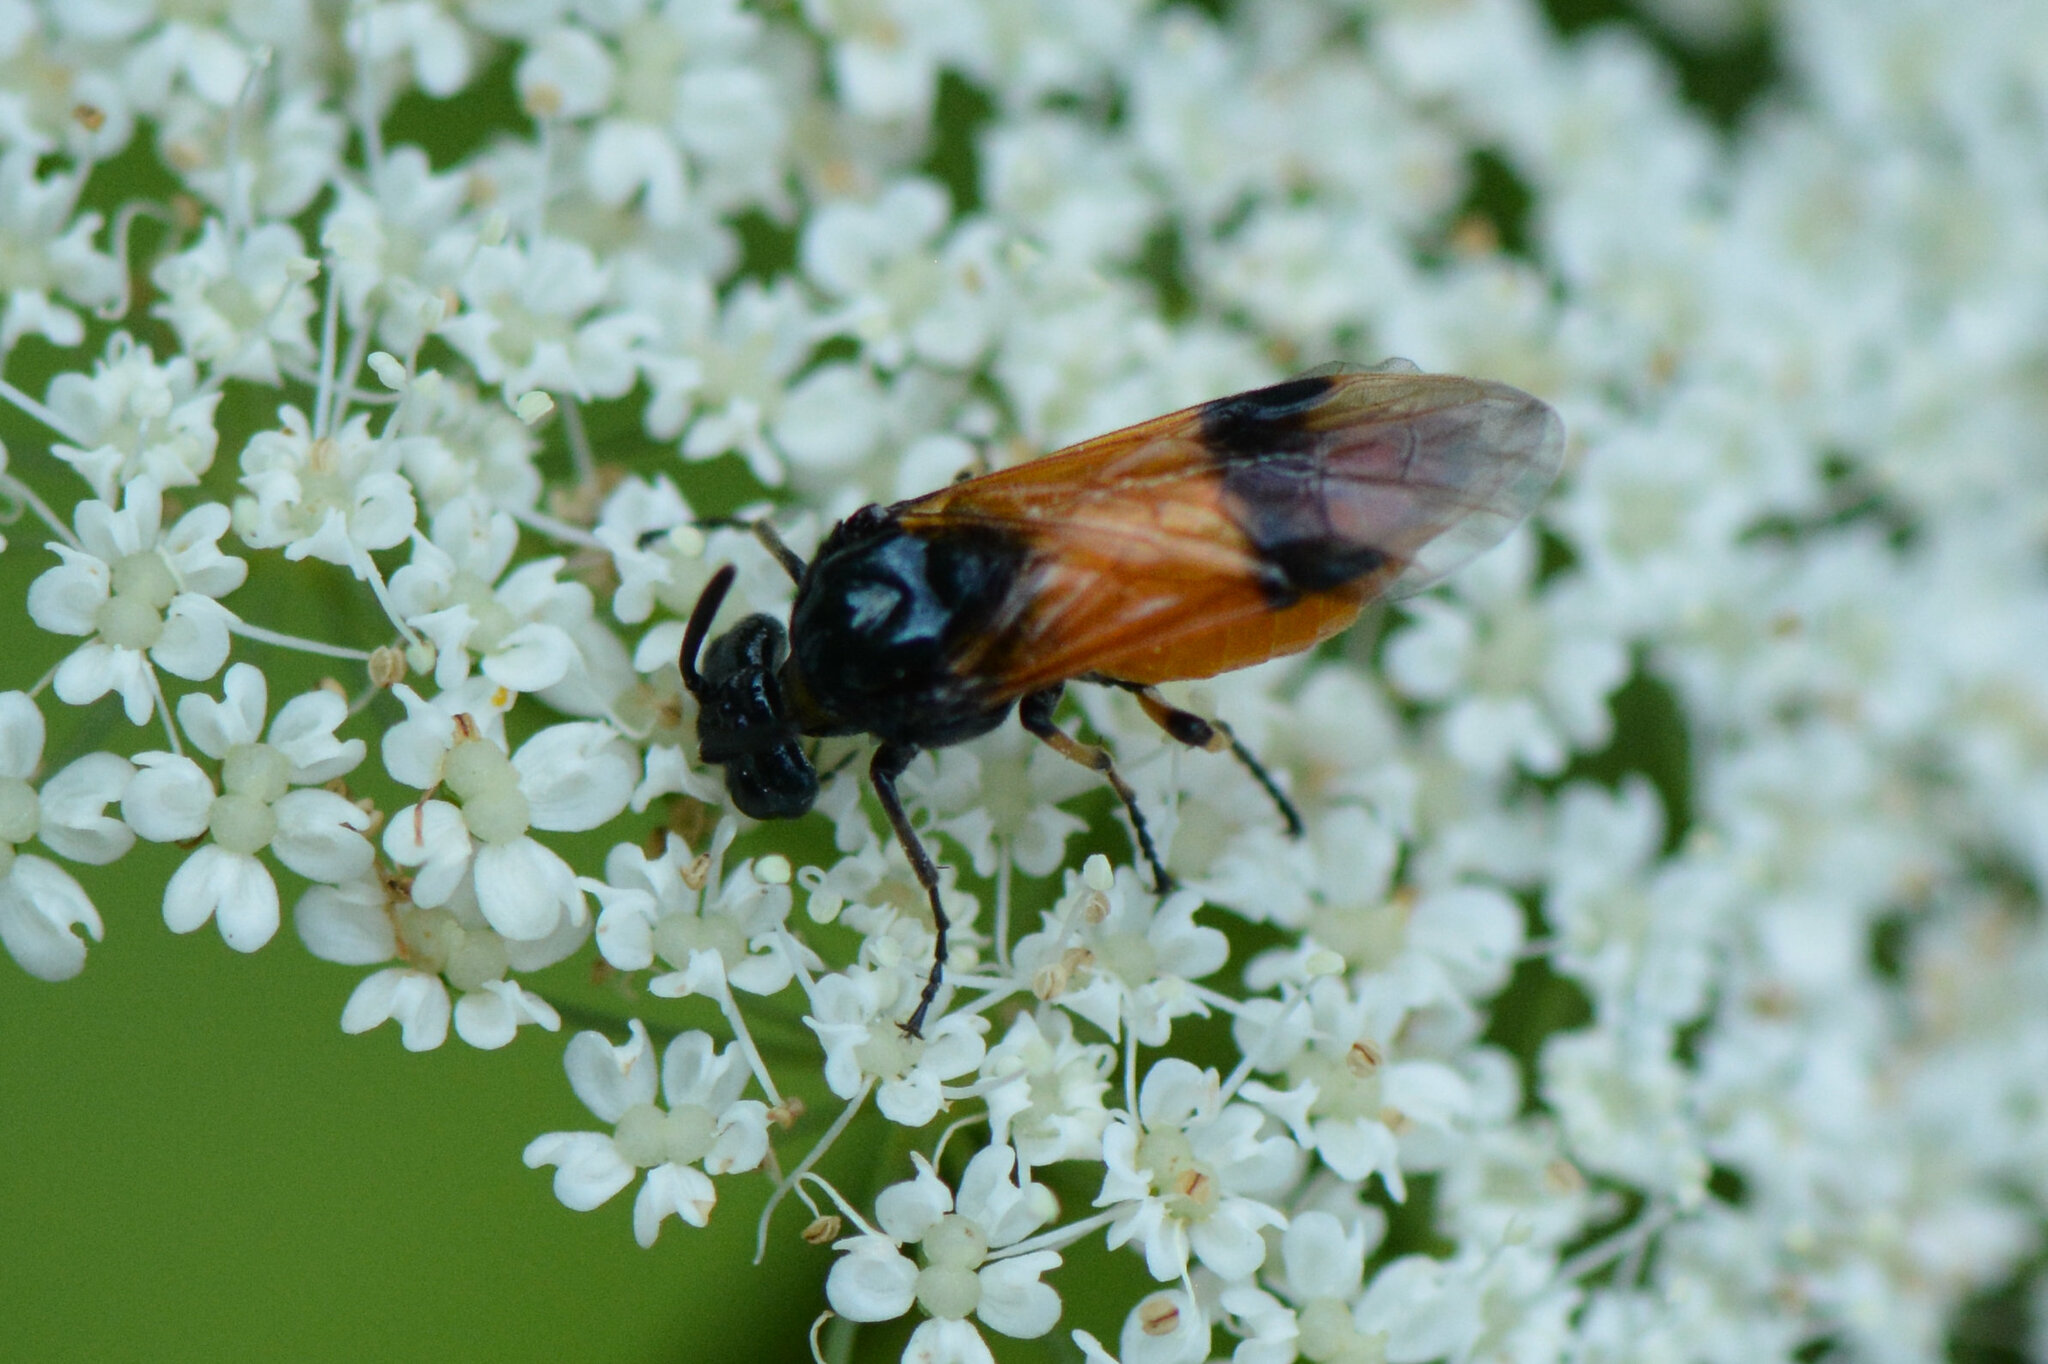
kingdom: Animalia
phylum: Arthropoda
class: Insecta
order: Hymenoptera
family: Argidae
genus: Arge
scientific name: Arge cyanocrocea
